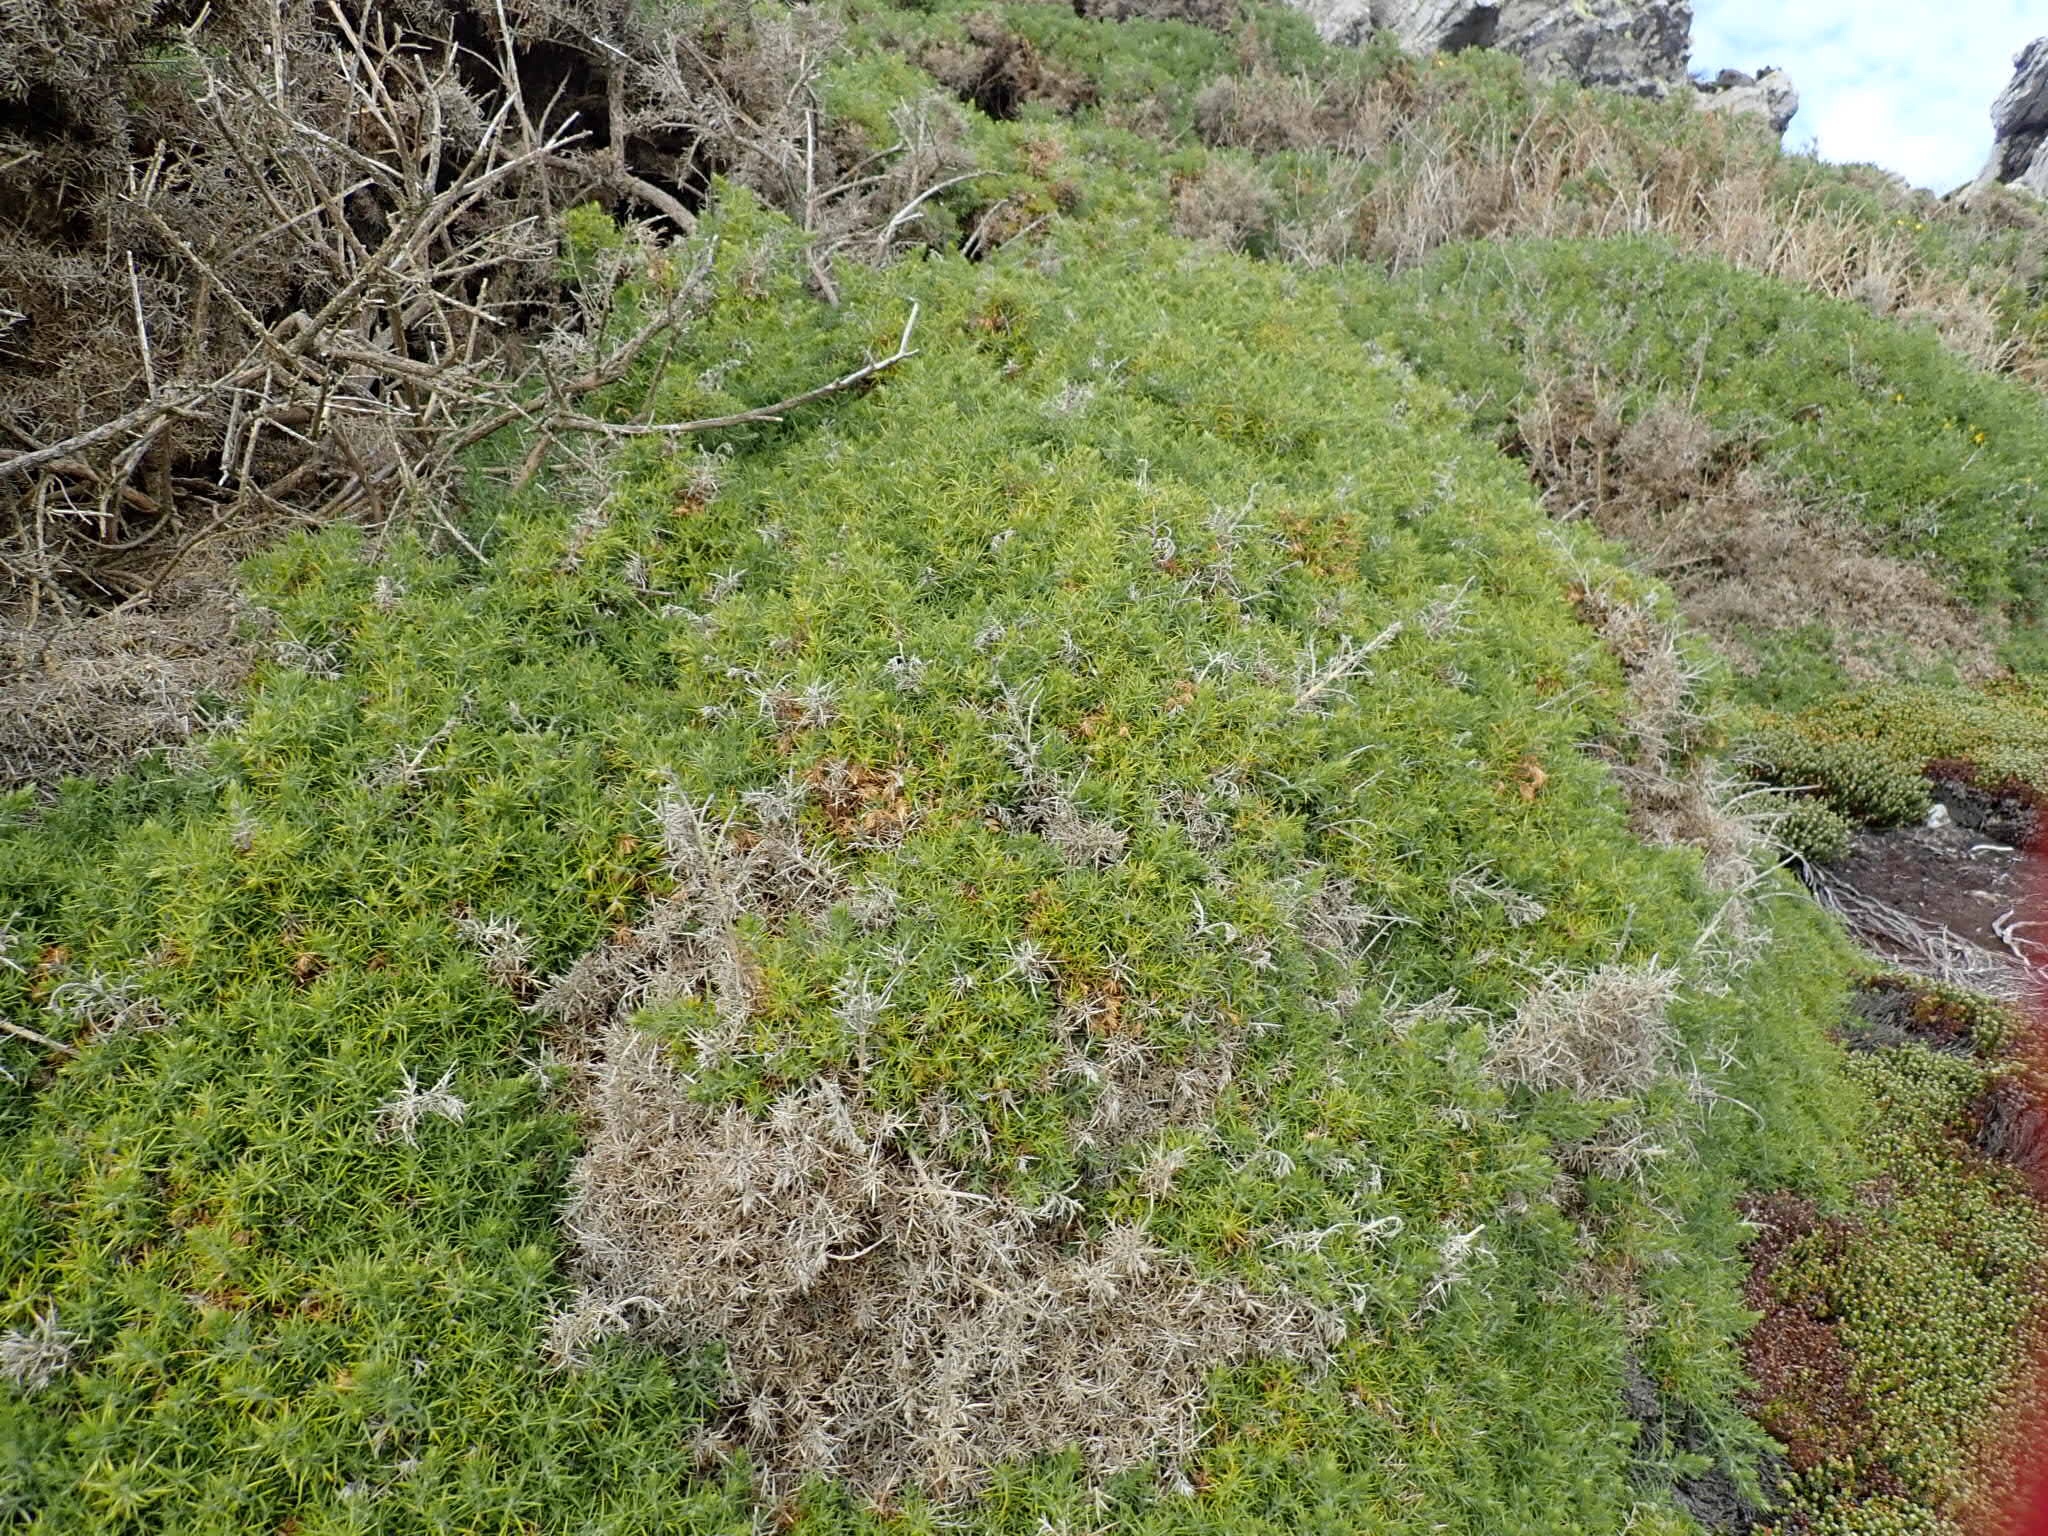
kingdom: Plantae
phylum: Tracheophyta
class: Magnoliopsida
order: Fabales
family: Fabaceae
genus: Ulex
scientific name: Ulex europaeus
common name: Common gorse
